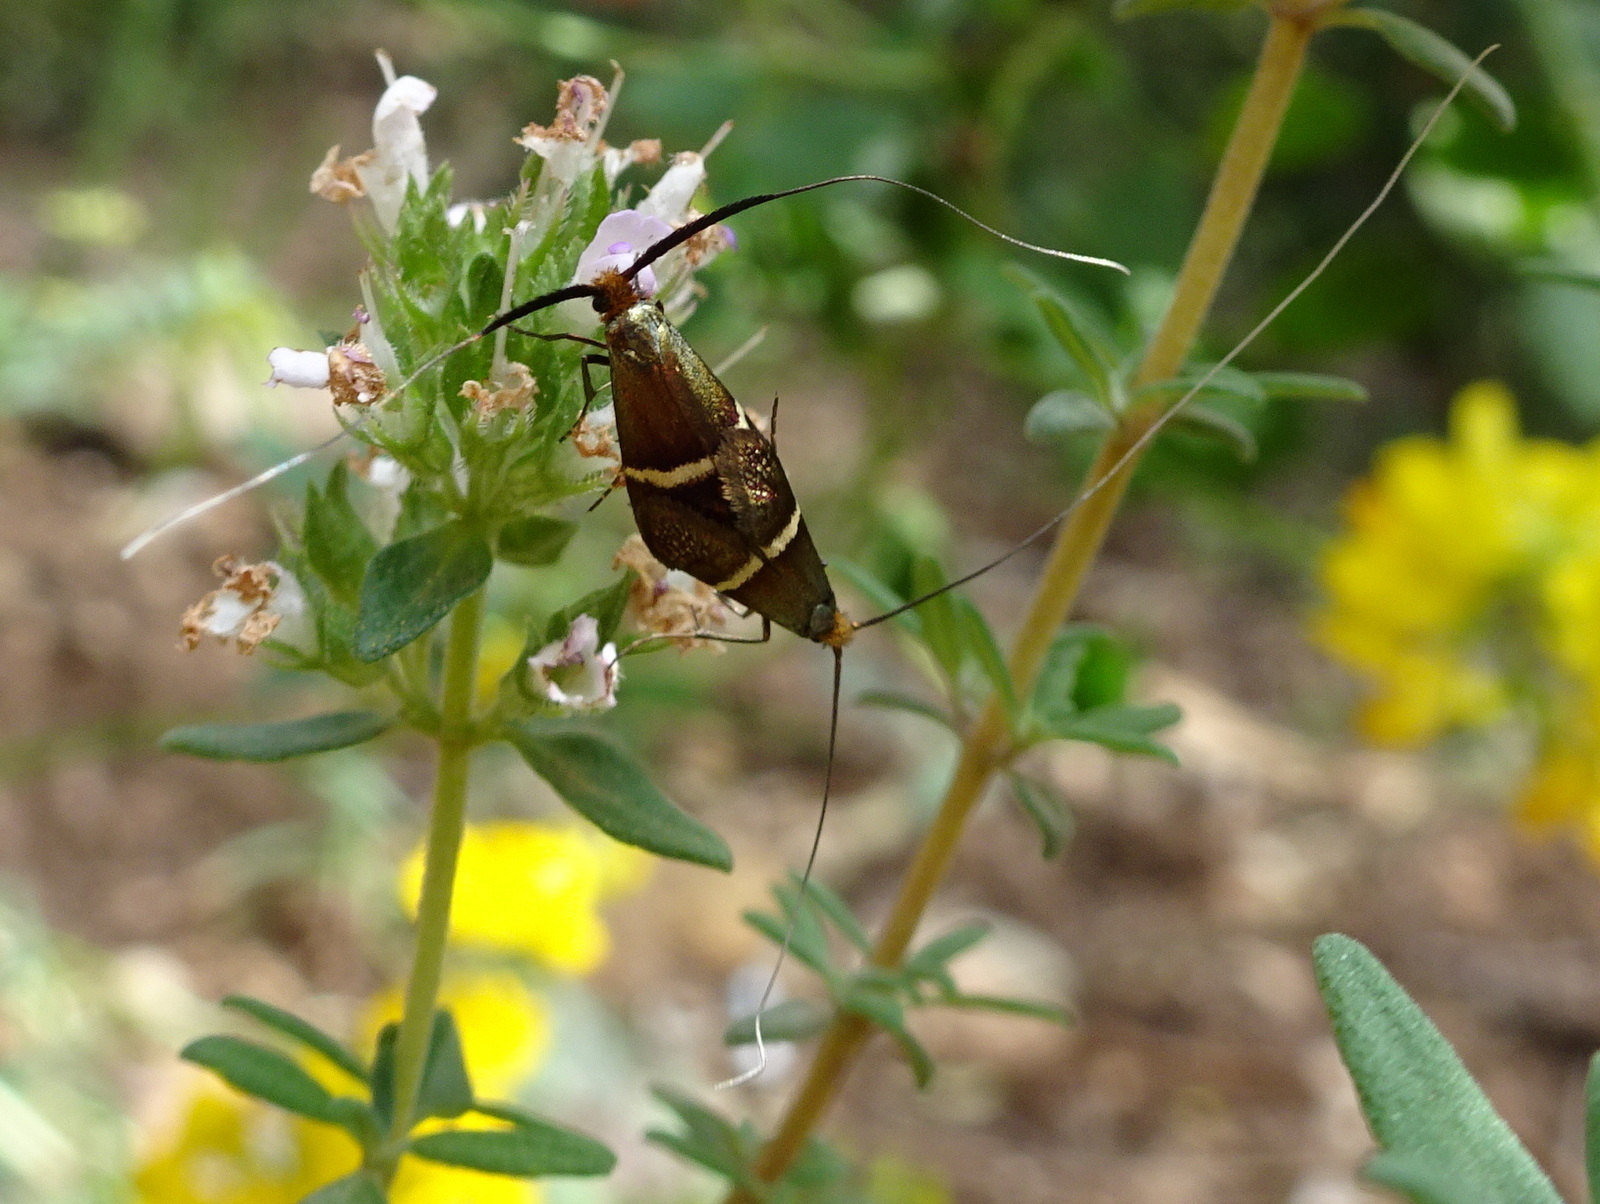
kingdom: Animalia
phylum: Arthropoda
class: Insecta
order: Lepidoptera
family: Adelidae
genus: Adela
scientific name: Adela australis
